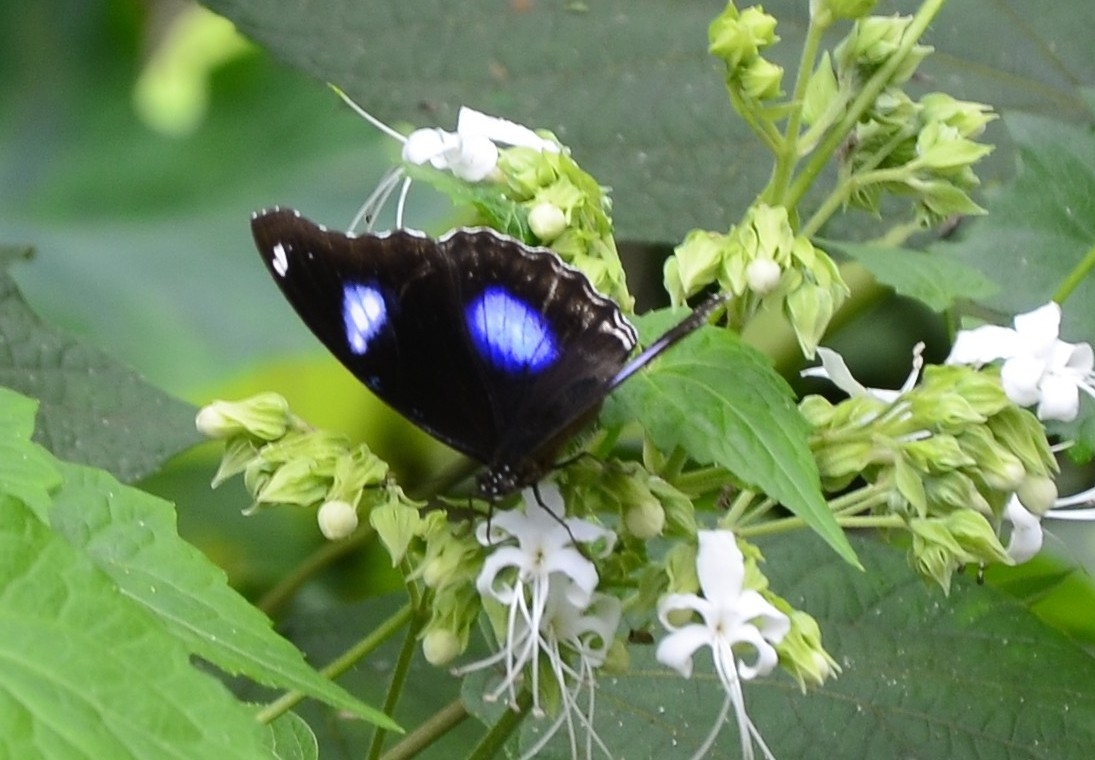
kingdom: Animalia
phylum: Arthropoda
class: Insecta
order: Lepidoptera
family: Nymphalidae
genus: Hypolimnas
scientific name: Hypolimnas bolina
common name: Great eggfly
